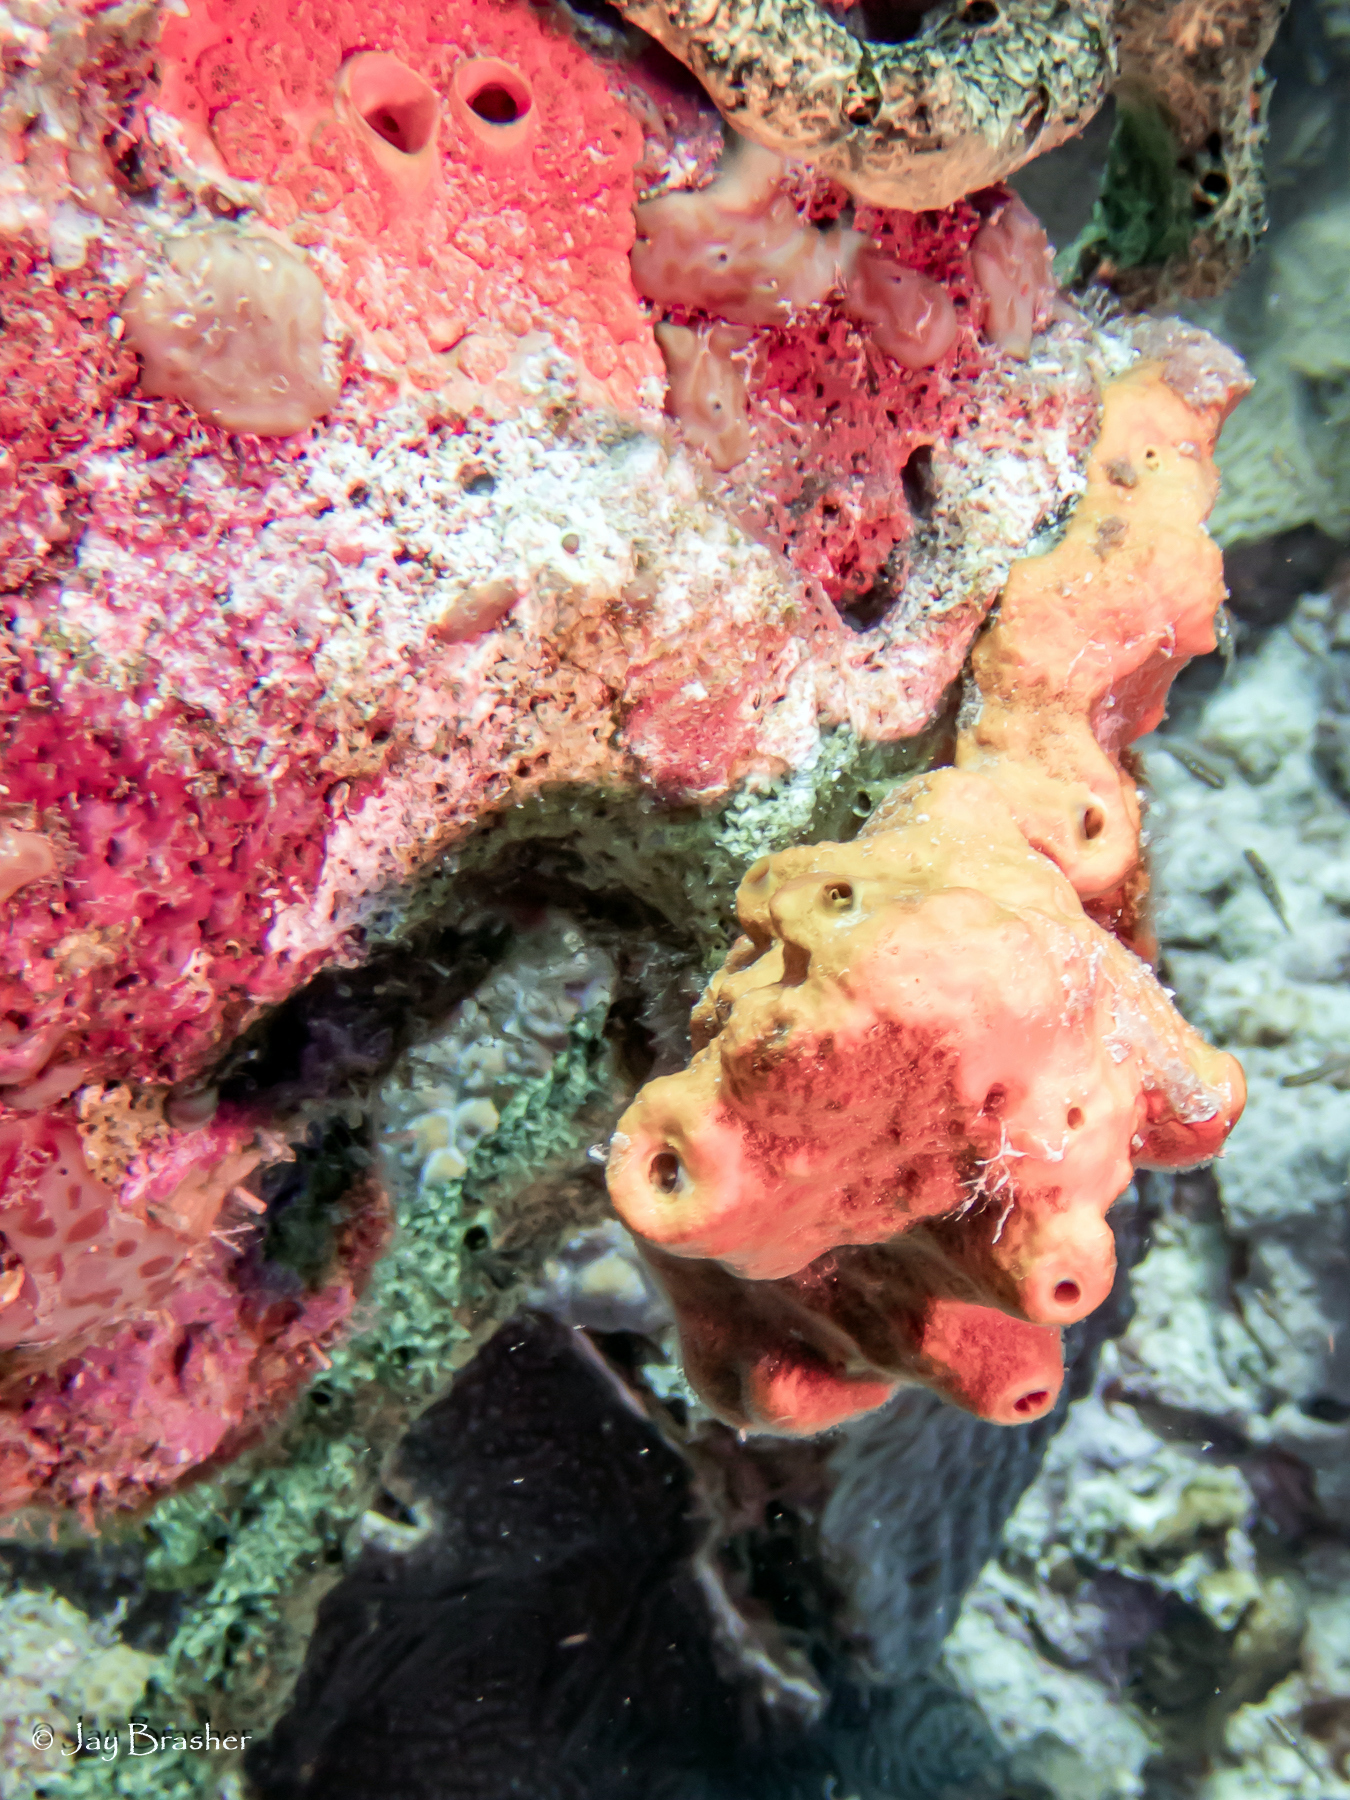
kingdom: Animalia
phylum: Porifera
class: Demospongiae
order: Clionaida
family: Clionaidae
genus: Cliothosa
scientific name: Cliothosa delitrix
